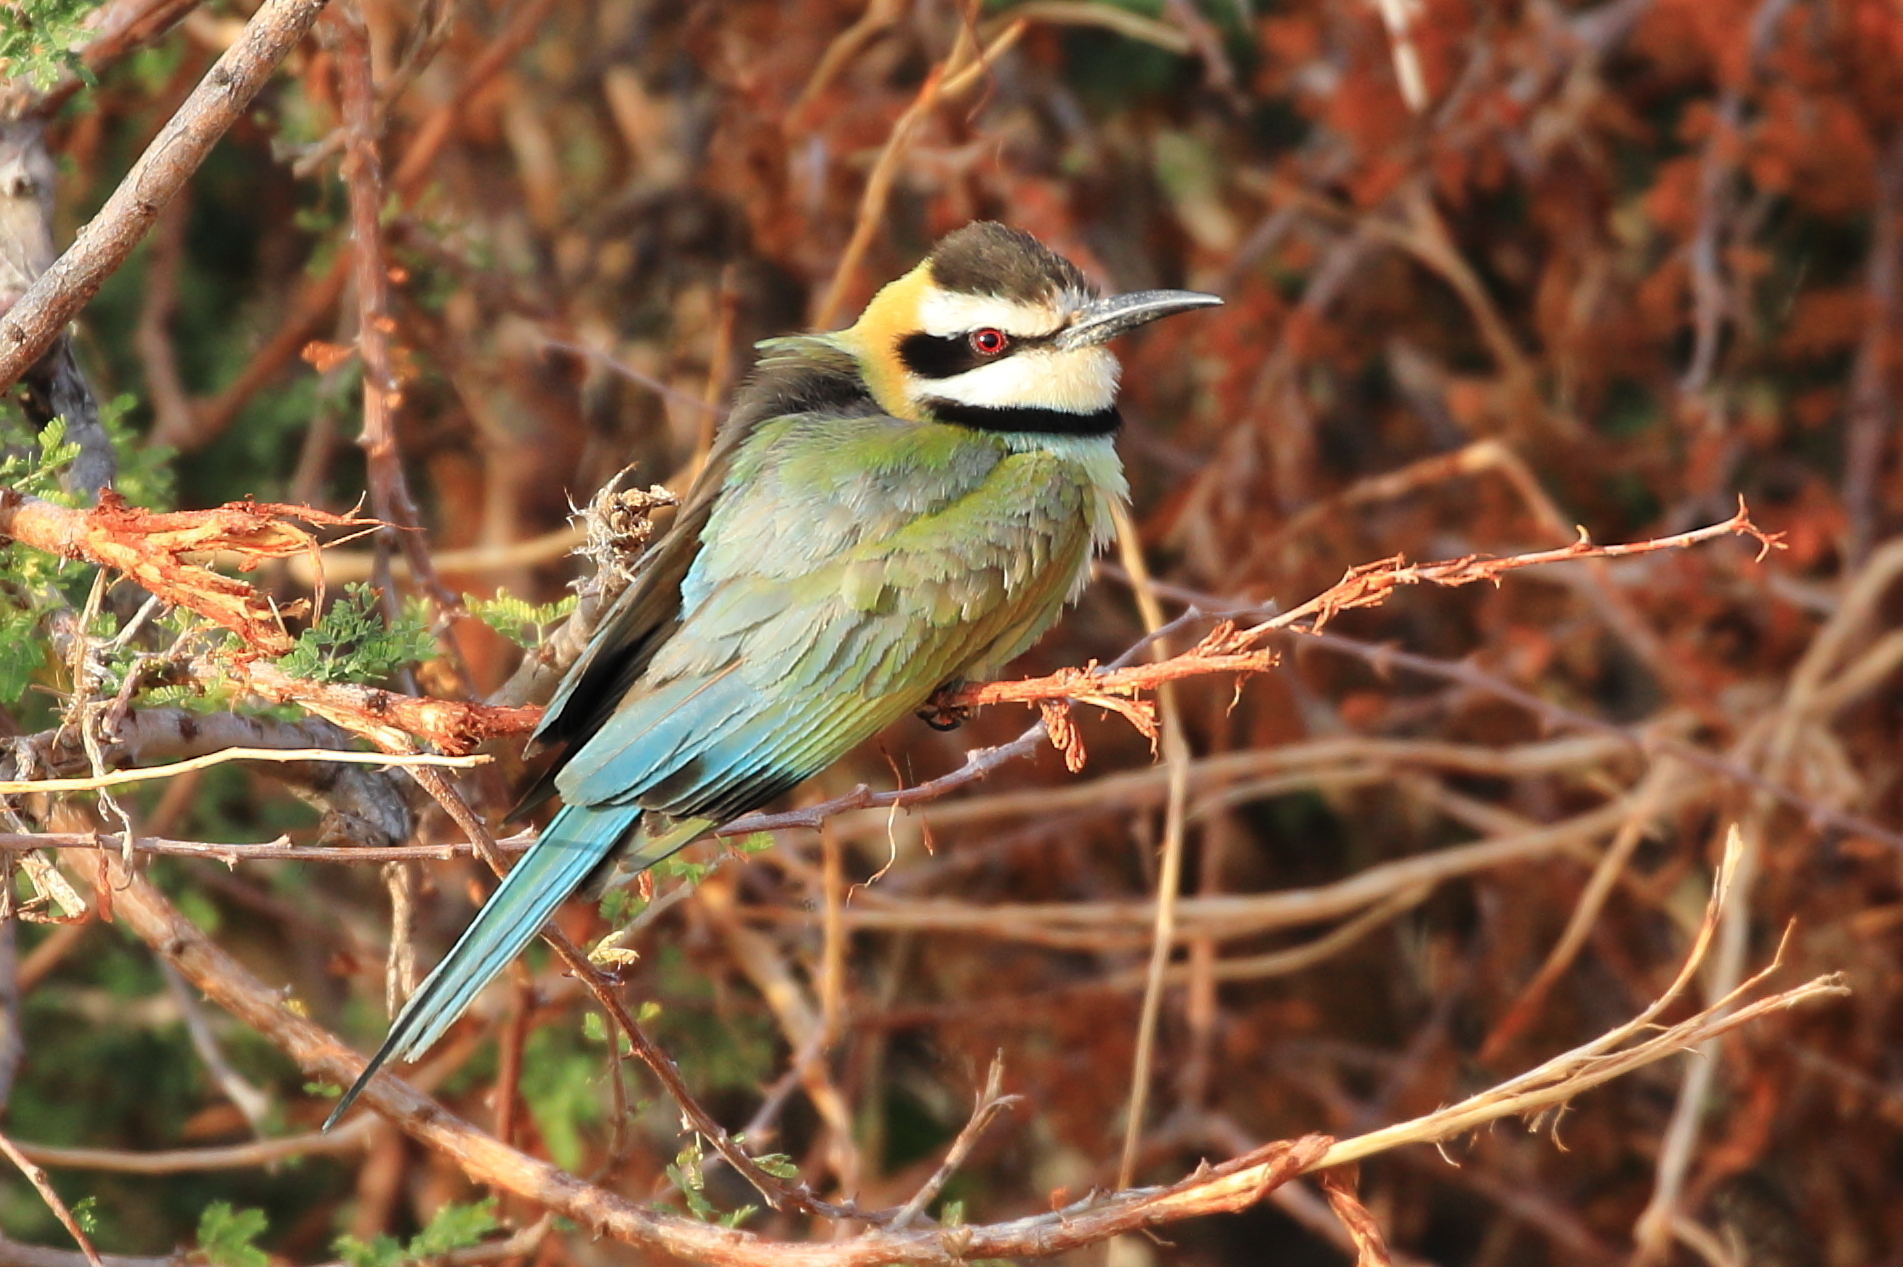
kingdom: Animalia
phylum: Chordata
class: Aves
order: Coraciiformes
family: Meropidae
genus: Merops
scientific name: Merops albicollis
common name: White-throated bee-eater
